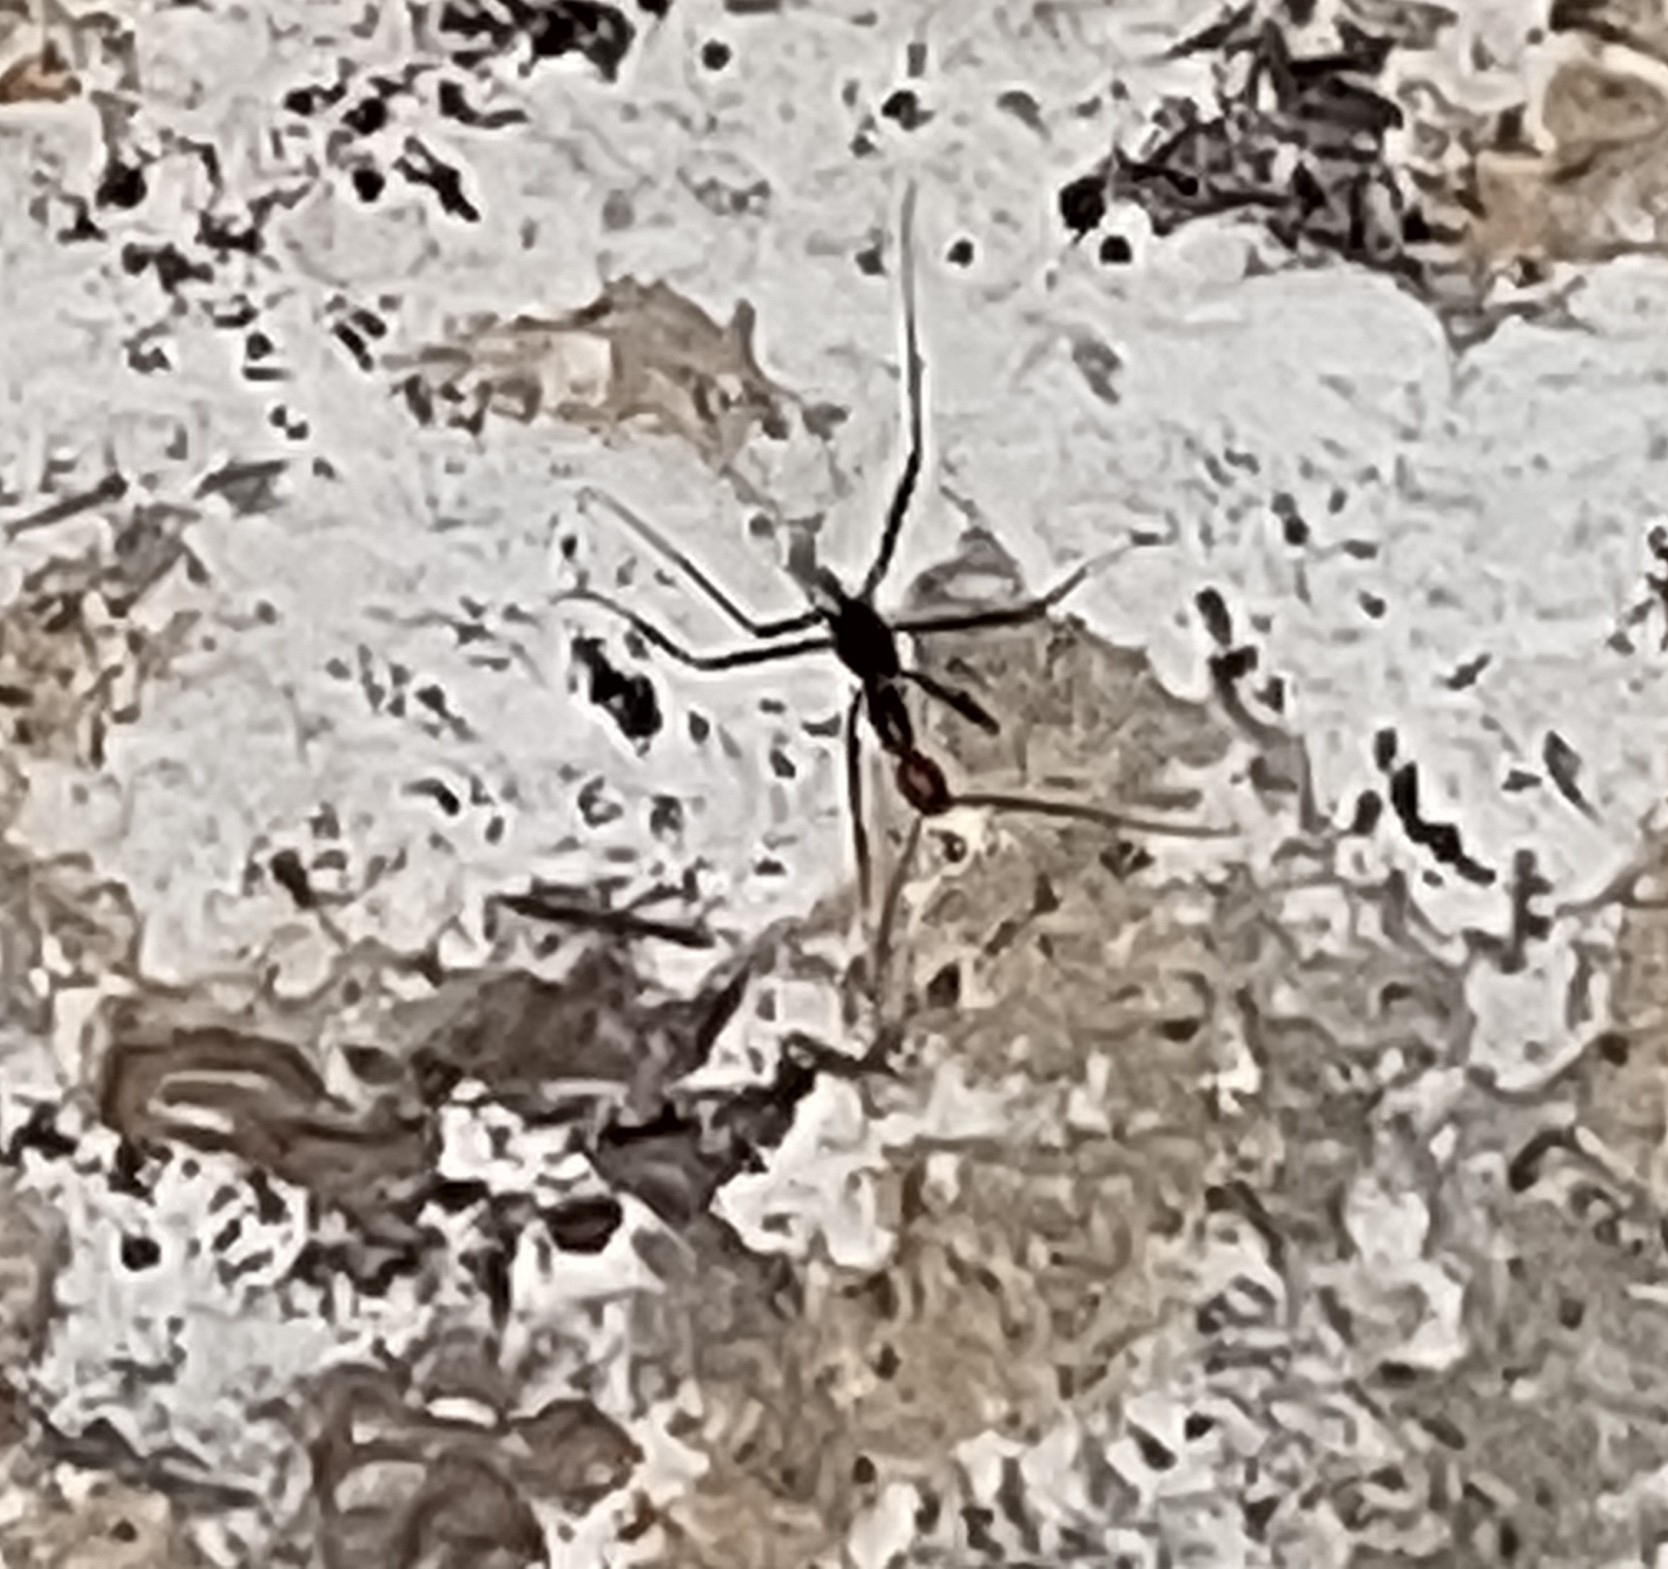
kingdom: Animalia
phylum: Arthropoda
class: Insecta
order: Hymenoptera
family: Formicidae
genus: Leptomyrmex
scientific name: Leptomyrmex erythrocephalus
